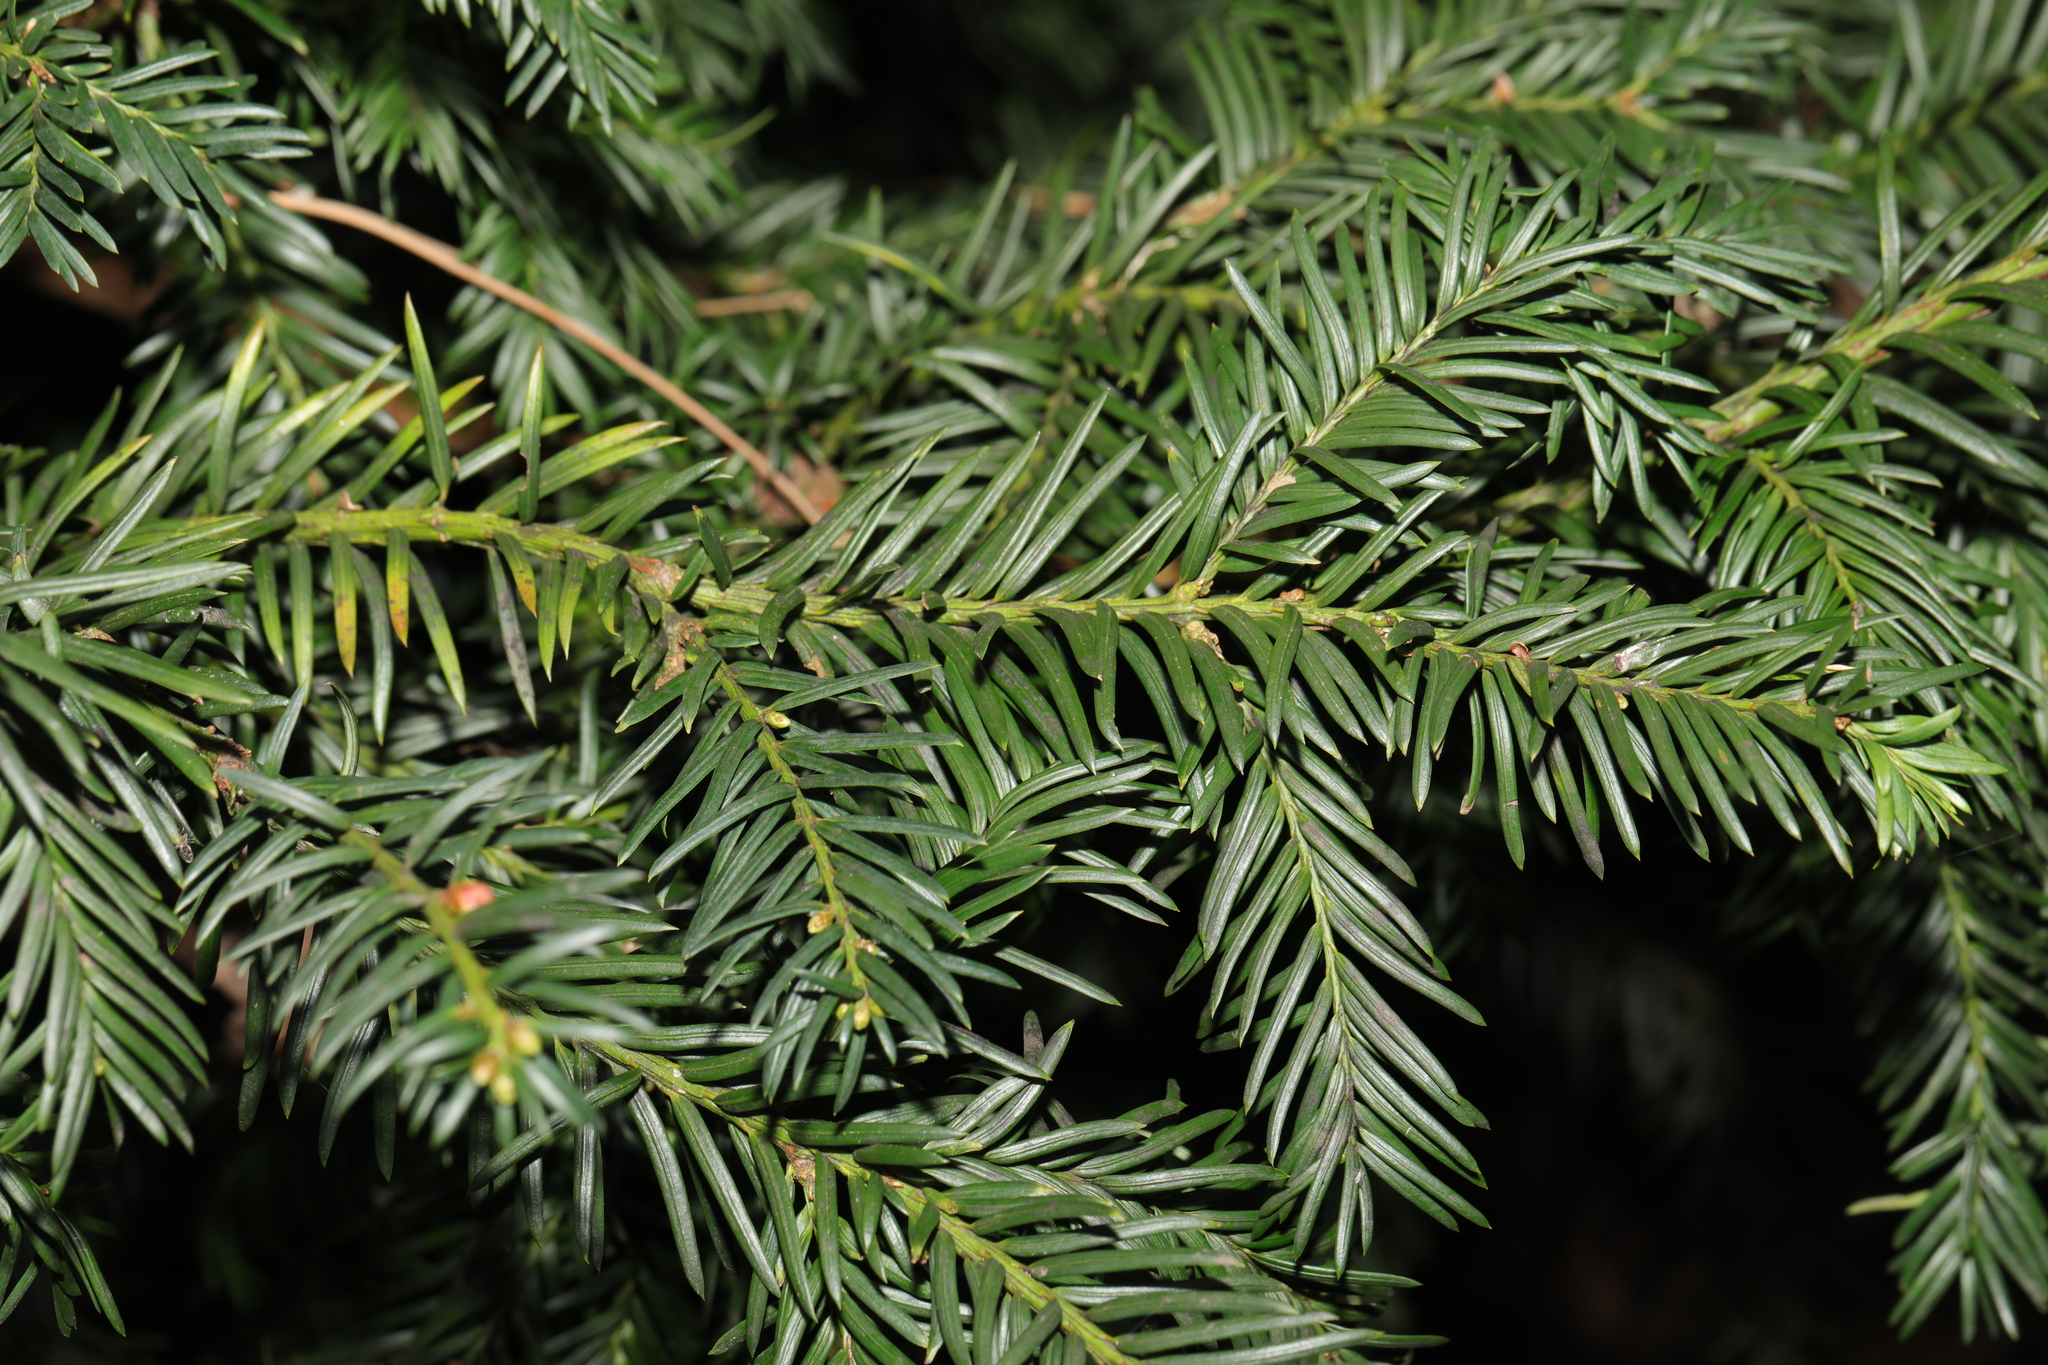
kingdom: Plantae
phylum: Tracheophyta
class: Pinopsida
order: Pinales
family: Taxaceae
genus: Taxus
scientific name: Taxus baccata
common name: Yew
